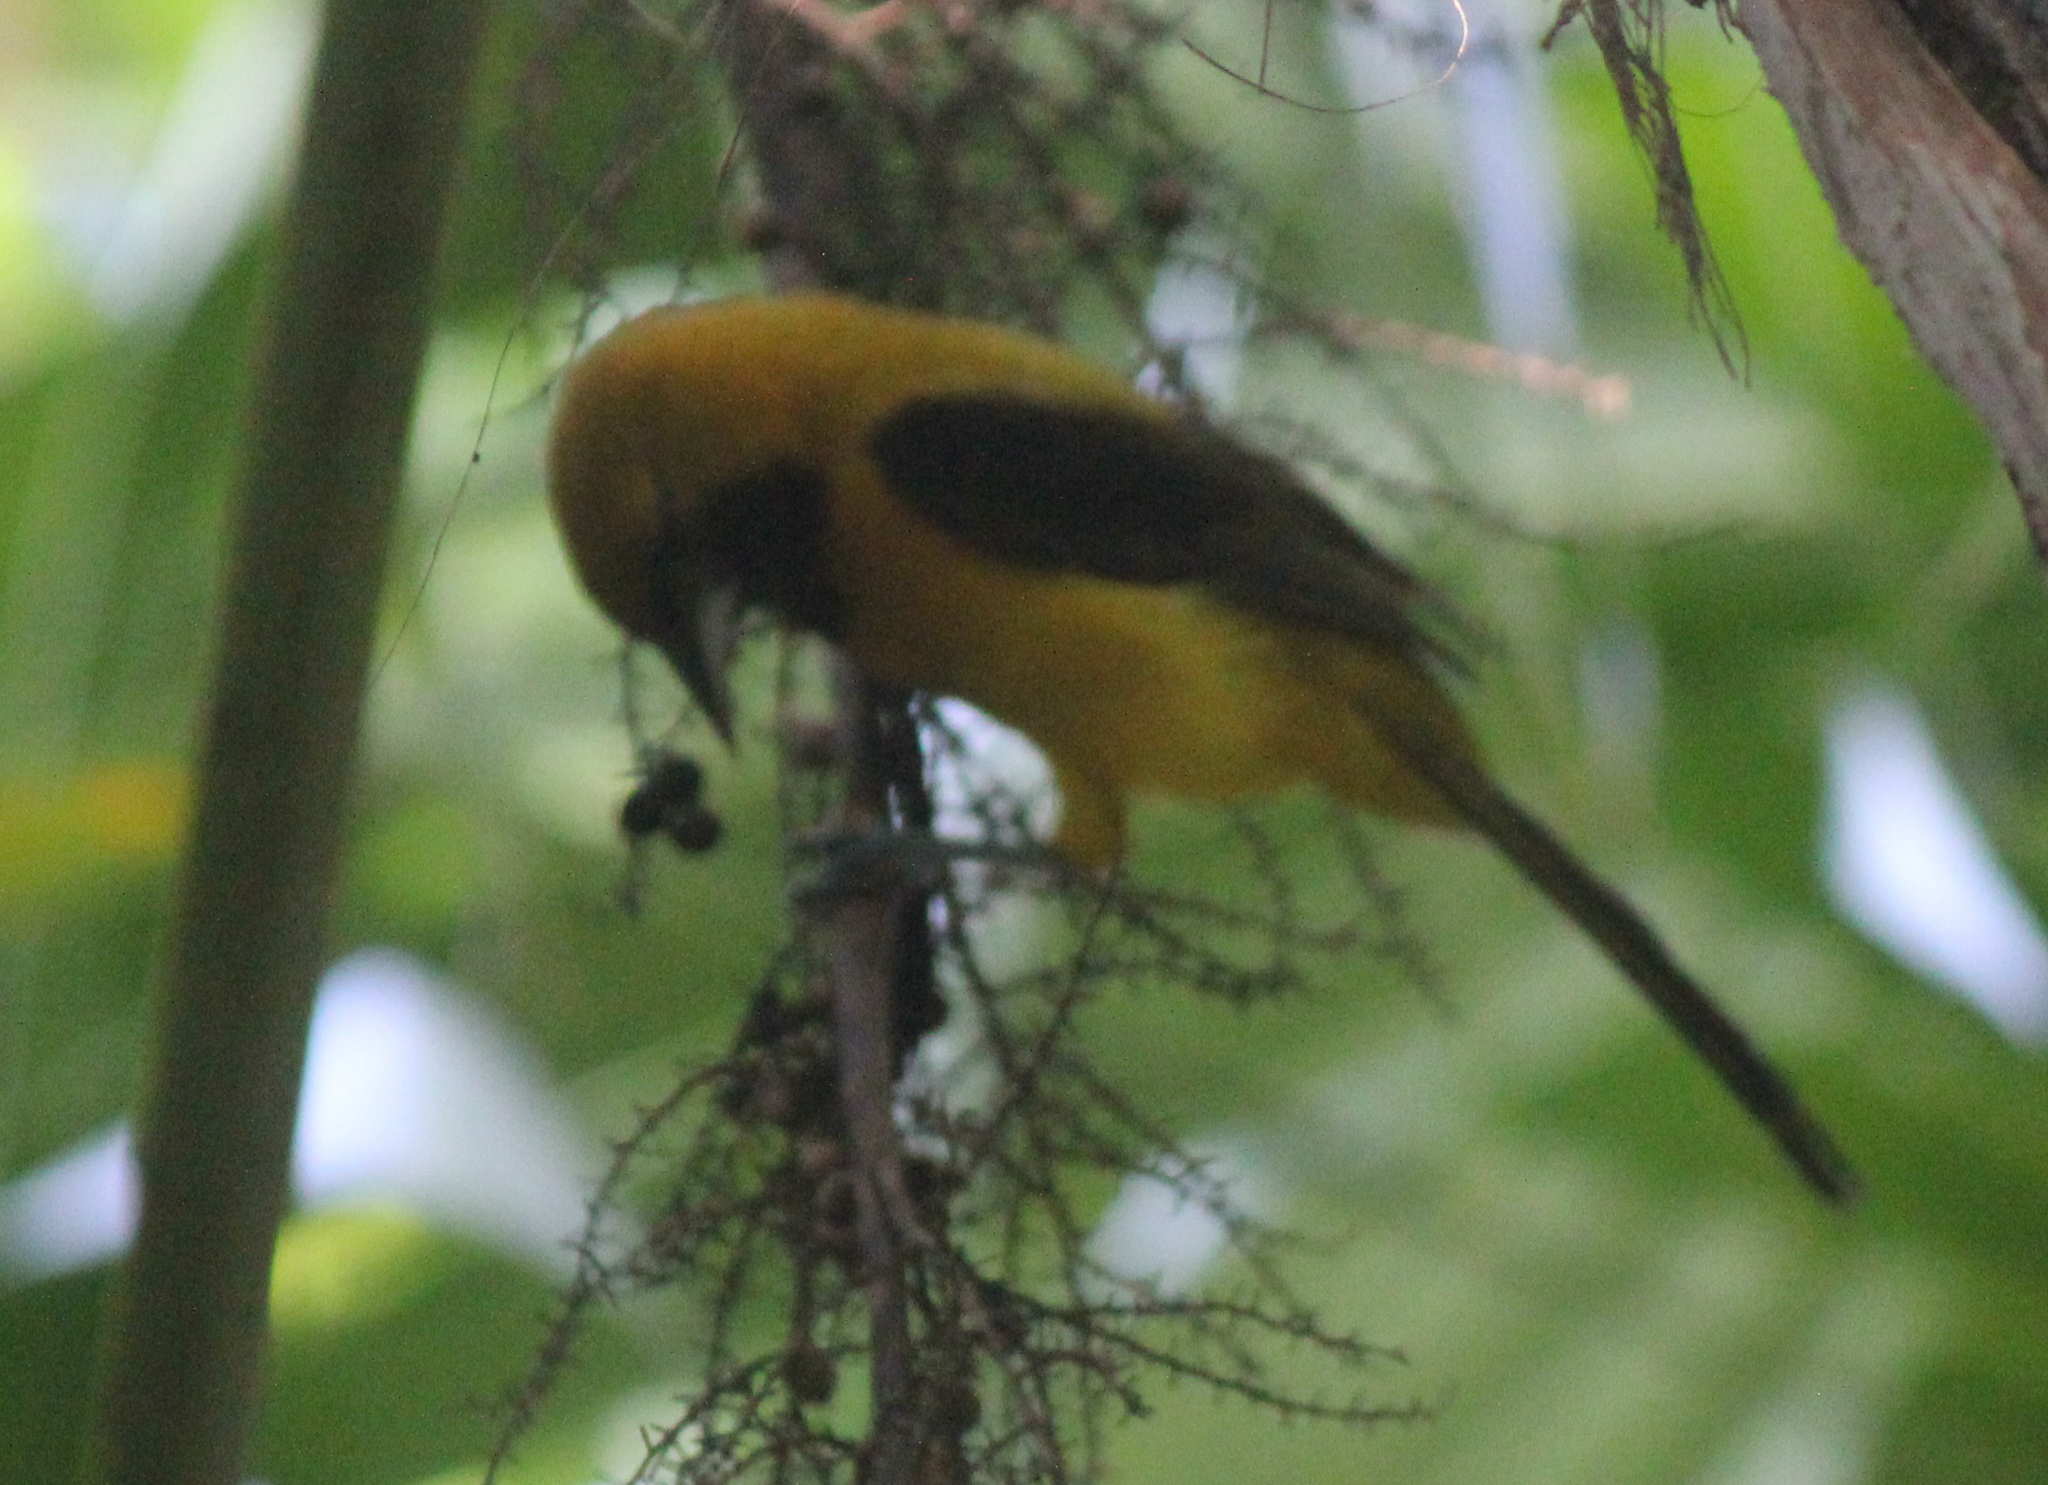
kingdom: Animalia
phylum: Chordata
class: Aves
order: Passeriformes
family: Icteridae
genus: Icterus
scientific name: Icterus chrysater
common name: Yellow-backed oriole
